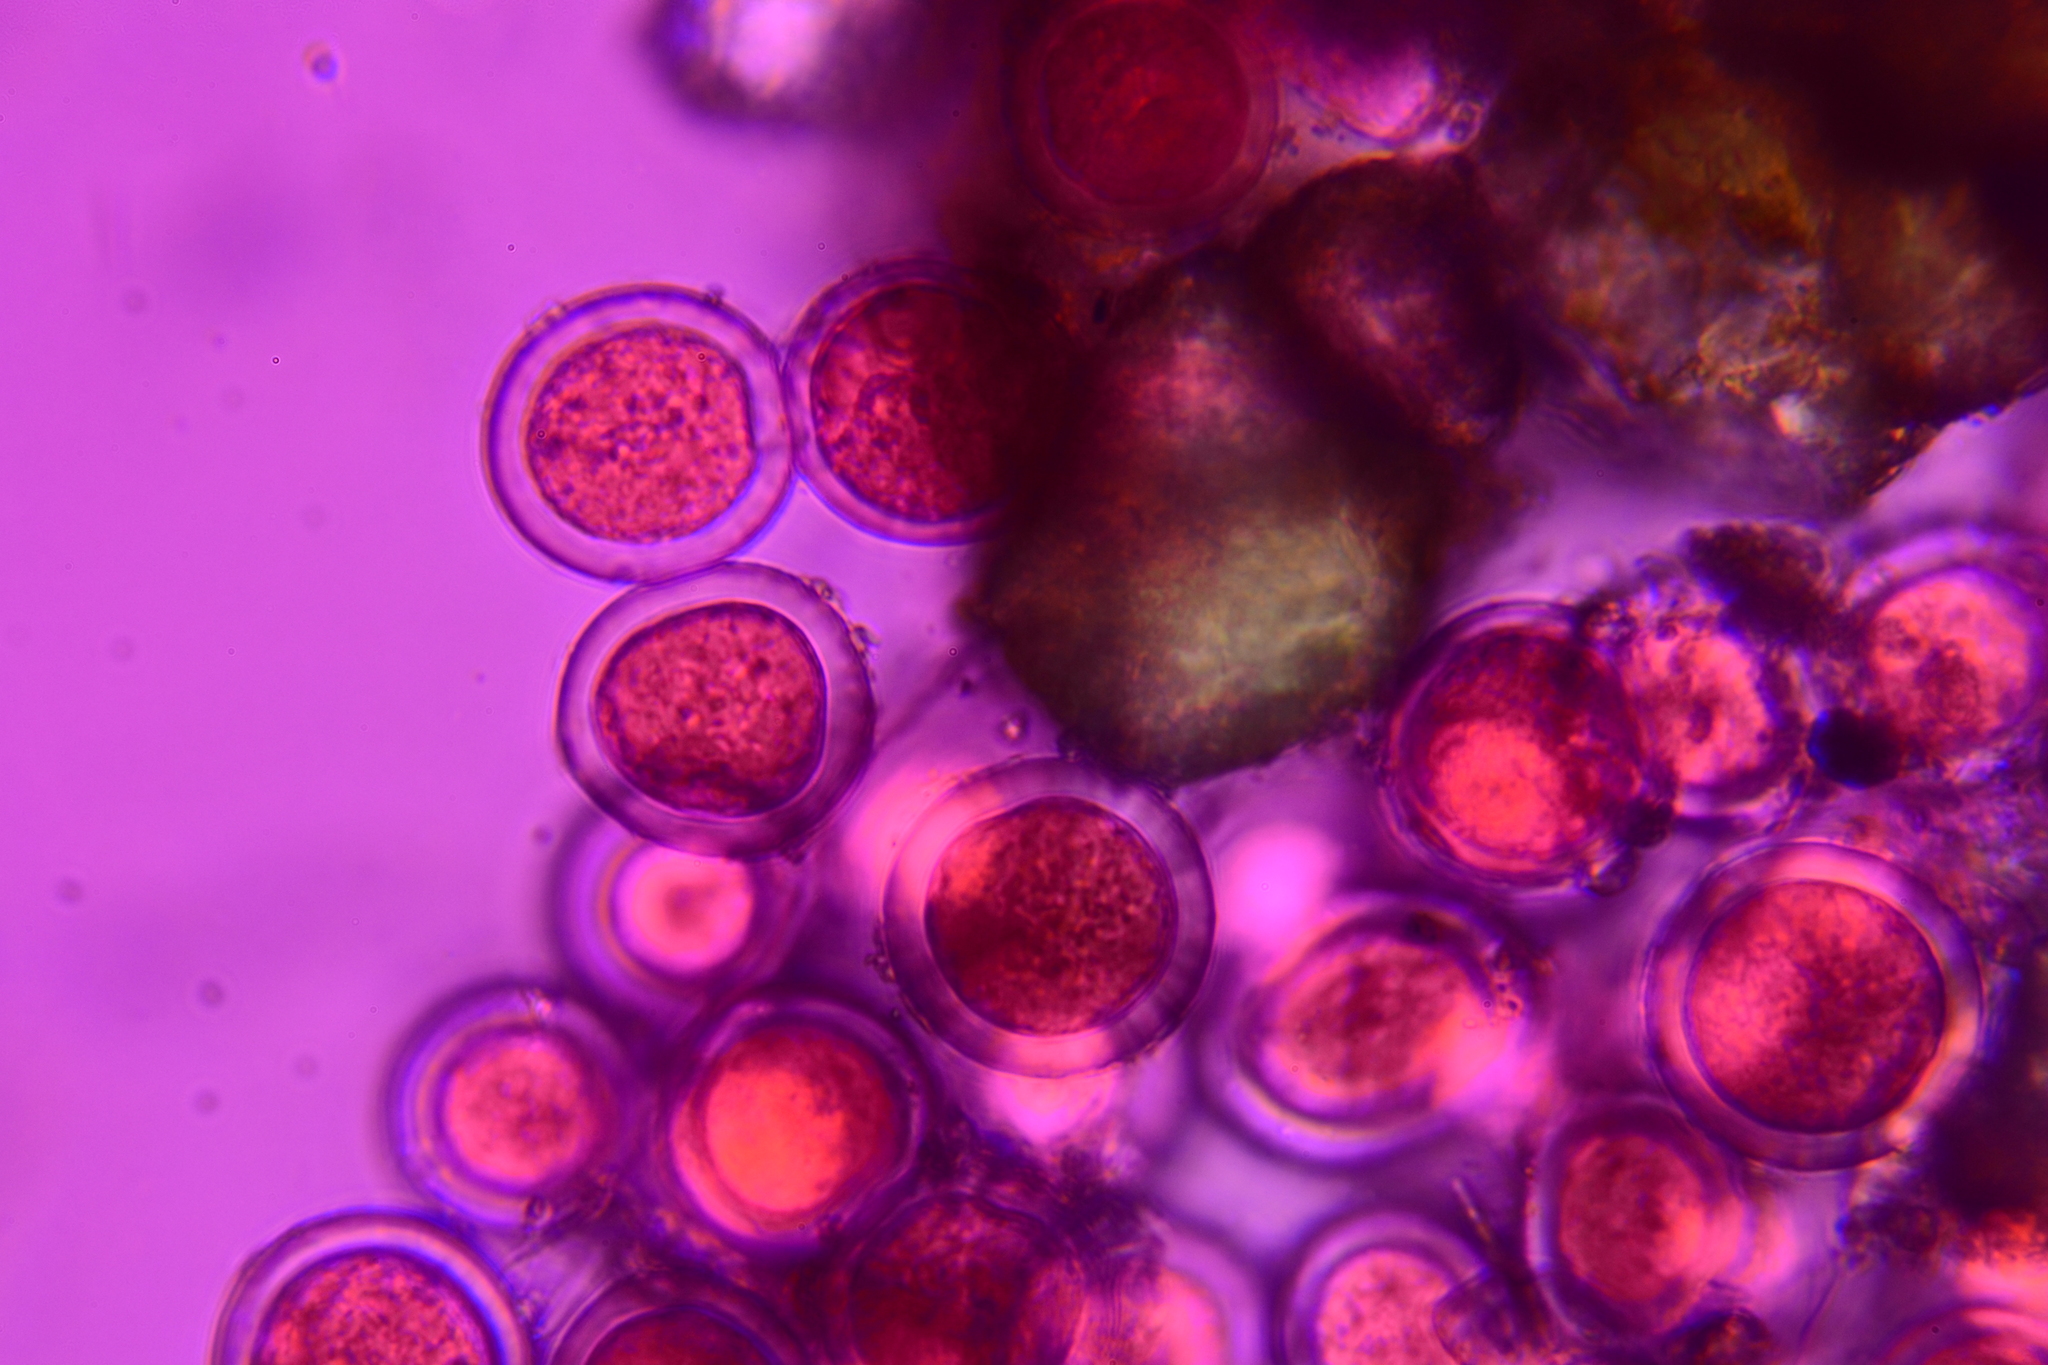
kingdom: Fungi
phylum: Ascomycota
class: Pezizomycetes
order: Pezizales
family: Pyronemataceae
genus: Sphaerosporium
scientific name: Sphaerosporium lignatile
